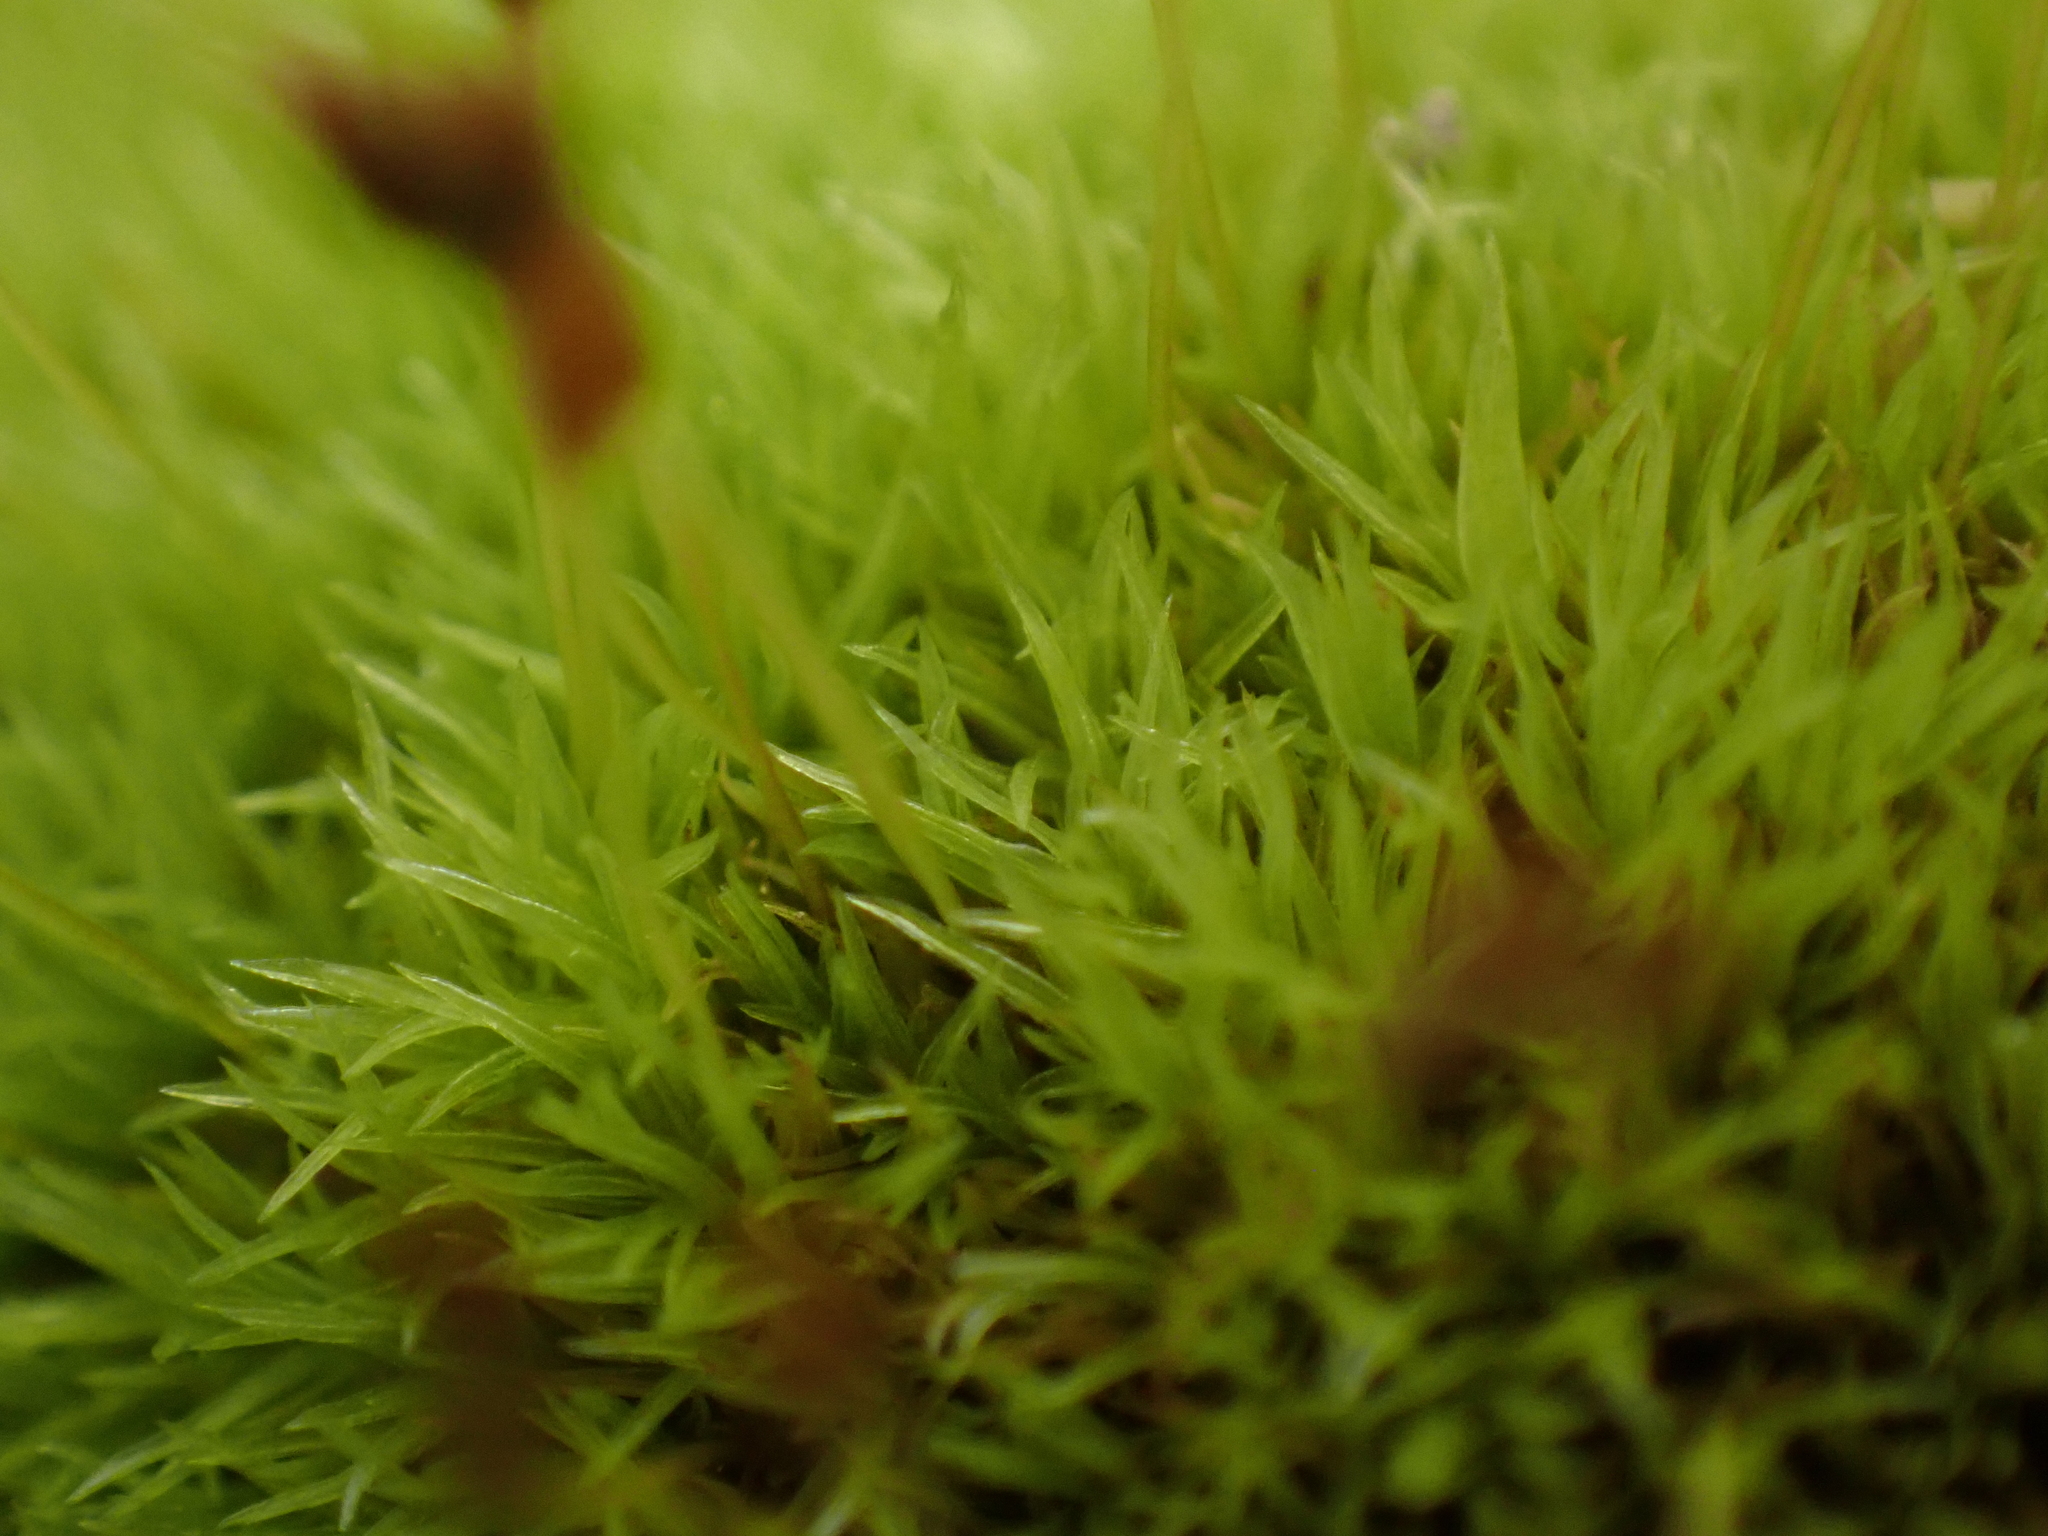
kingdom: Plantae
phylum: Bryophyta
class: Bryopsida
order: Dicranales
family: Rhabdoweisiaceae
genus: Dicranoweisia
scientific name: Dicranoweisia cirrata
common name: Common pincushion
